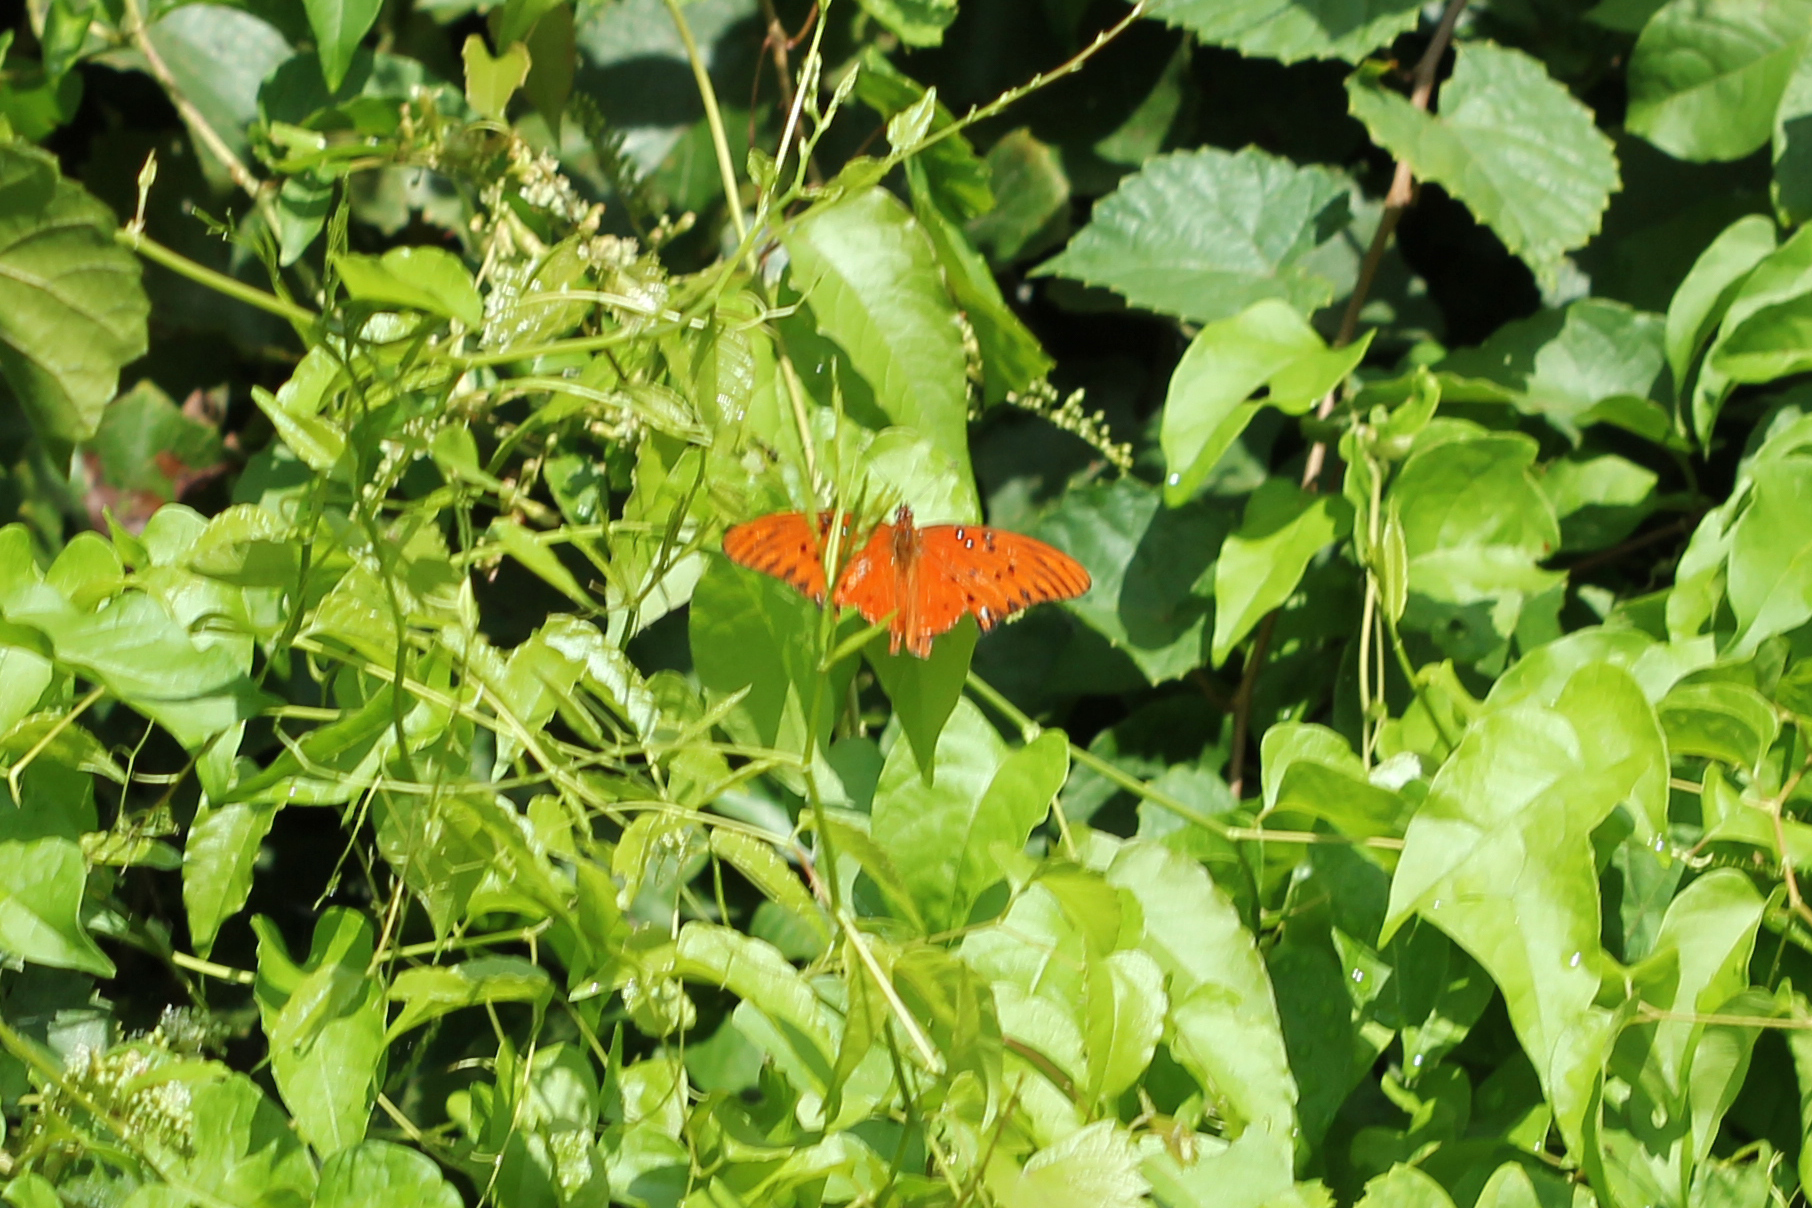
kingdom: Animalia
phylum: Arthropoda
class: Insecta
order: Lepidoptera
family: Nymphalidae
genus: Dione
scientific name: Dione vanillae
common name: Gulf fritillary
